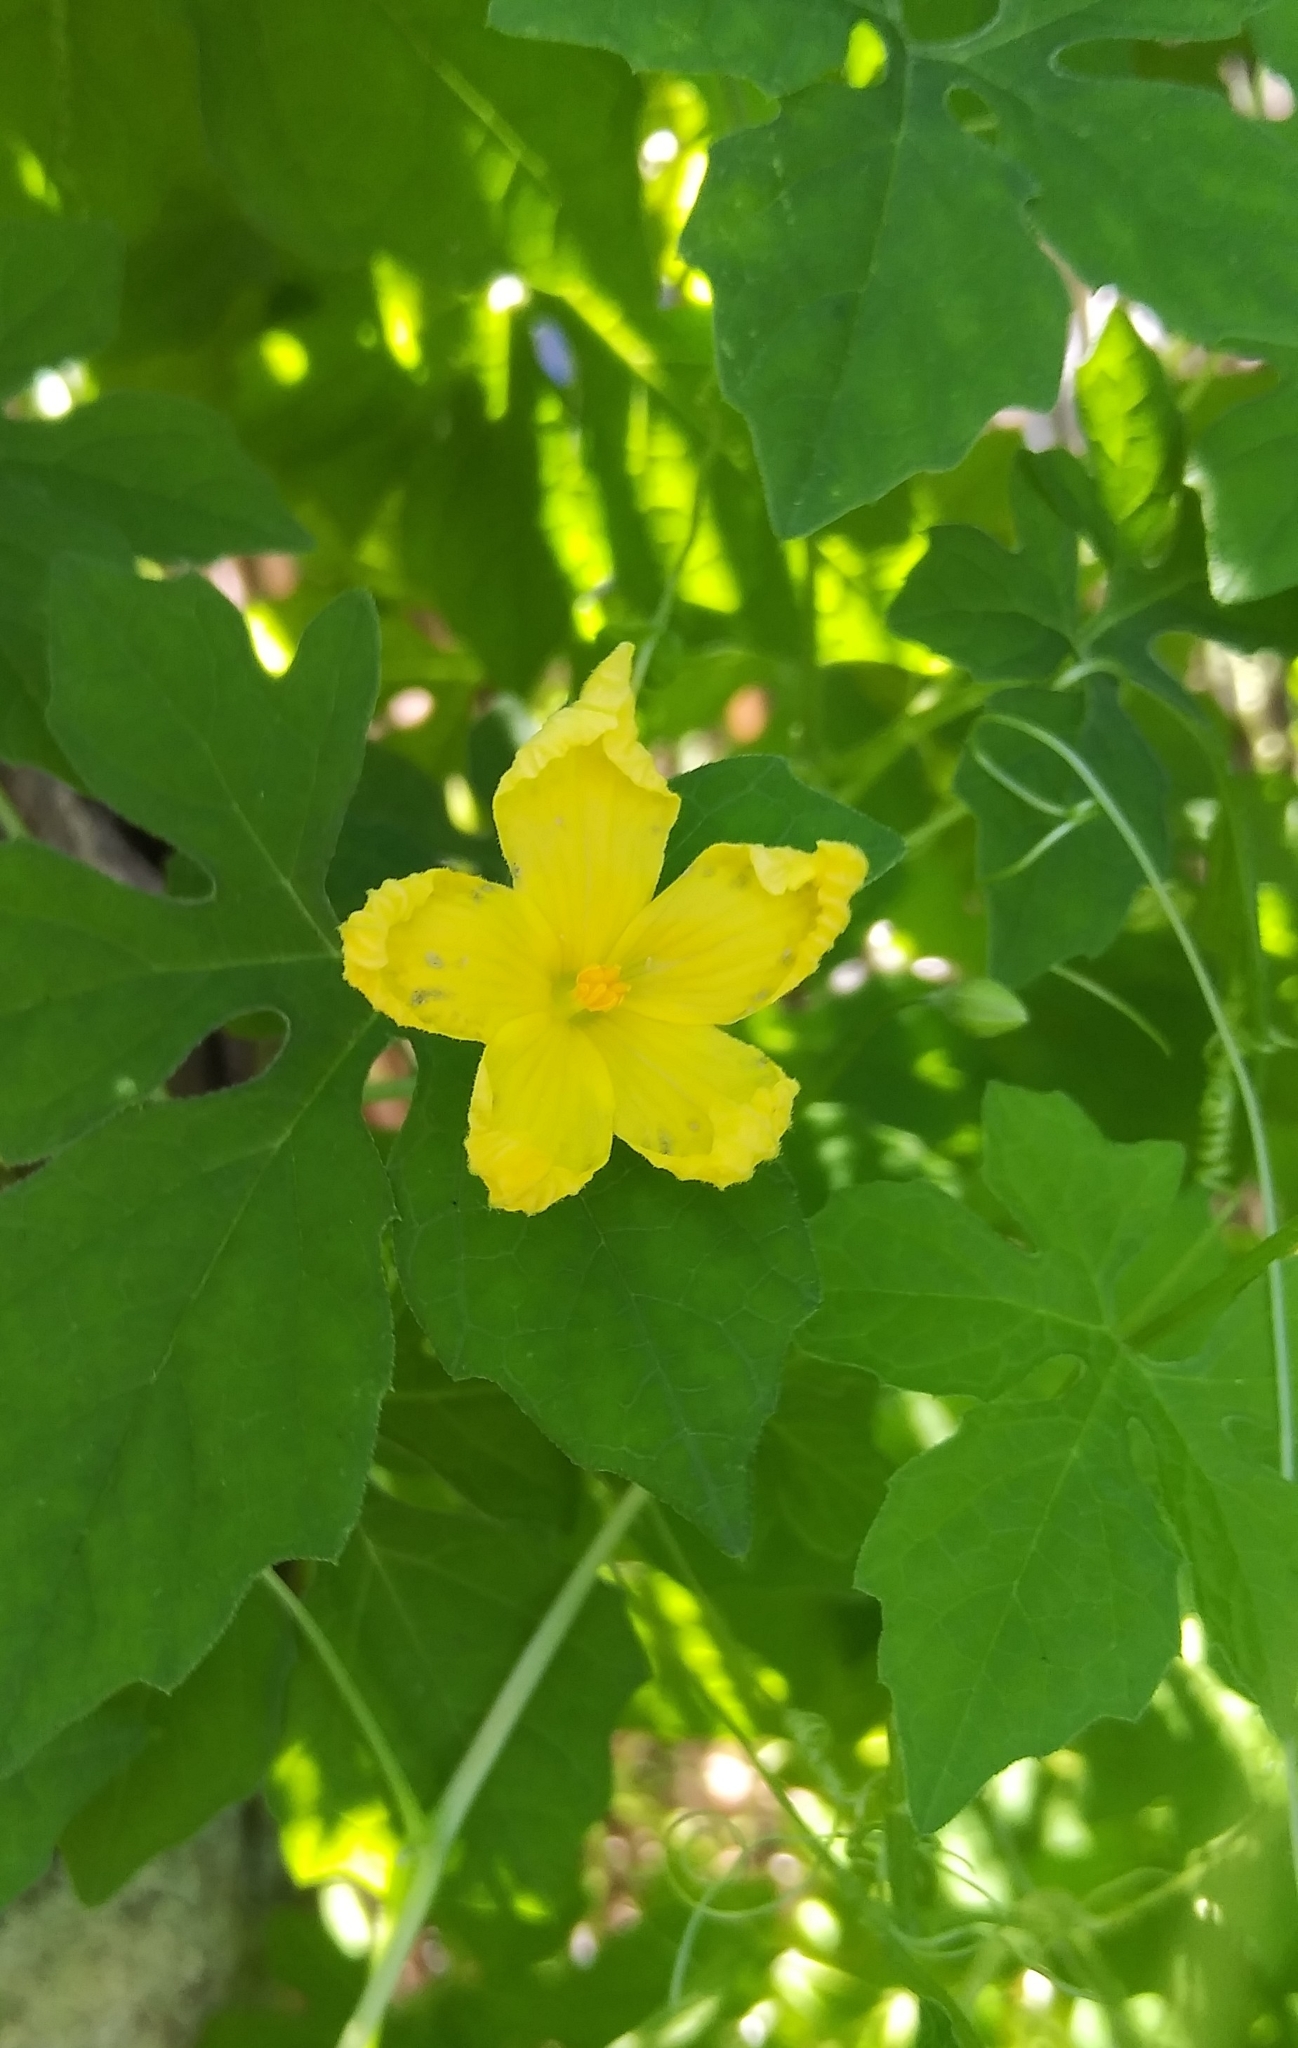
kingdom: Plantae
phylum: Tracheophyta
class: Magnoliopsida
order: Cucurbitales
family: Cucurbitaceae
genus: Momordica
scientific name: Momordica charantia
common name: Balsampear
